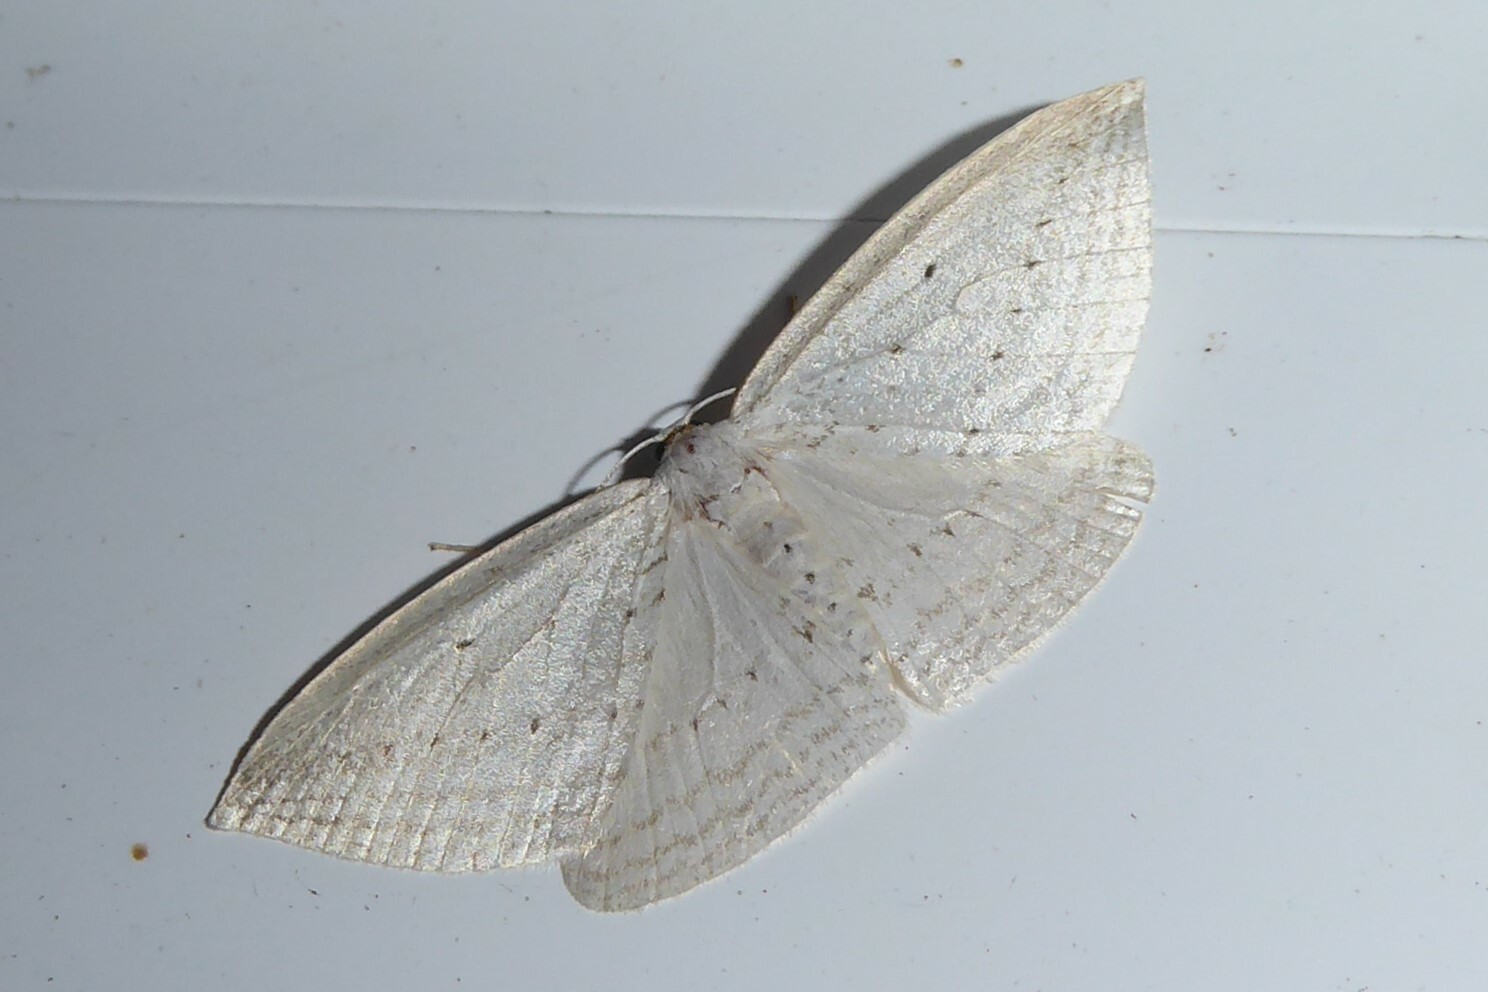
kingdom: Animalia
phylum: Arthropoda
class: Insecta
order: Lepidoptera
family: Geometridae
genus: Orthoclydon
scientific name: Orthoclydon praefectata
